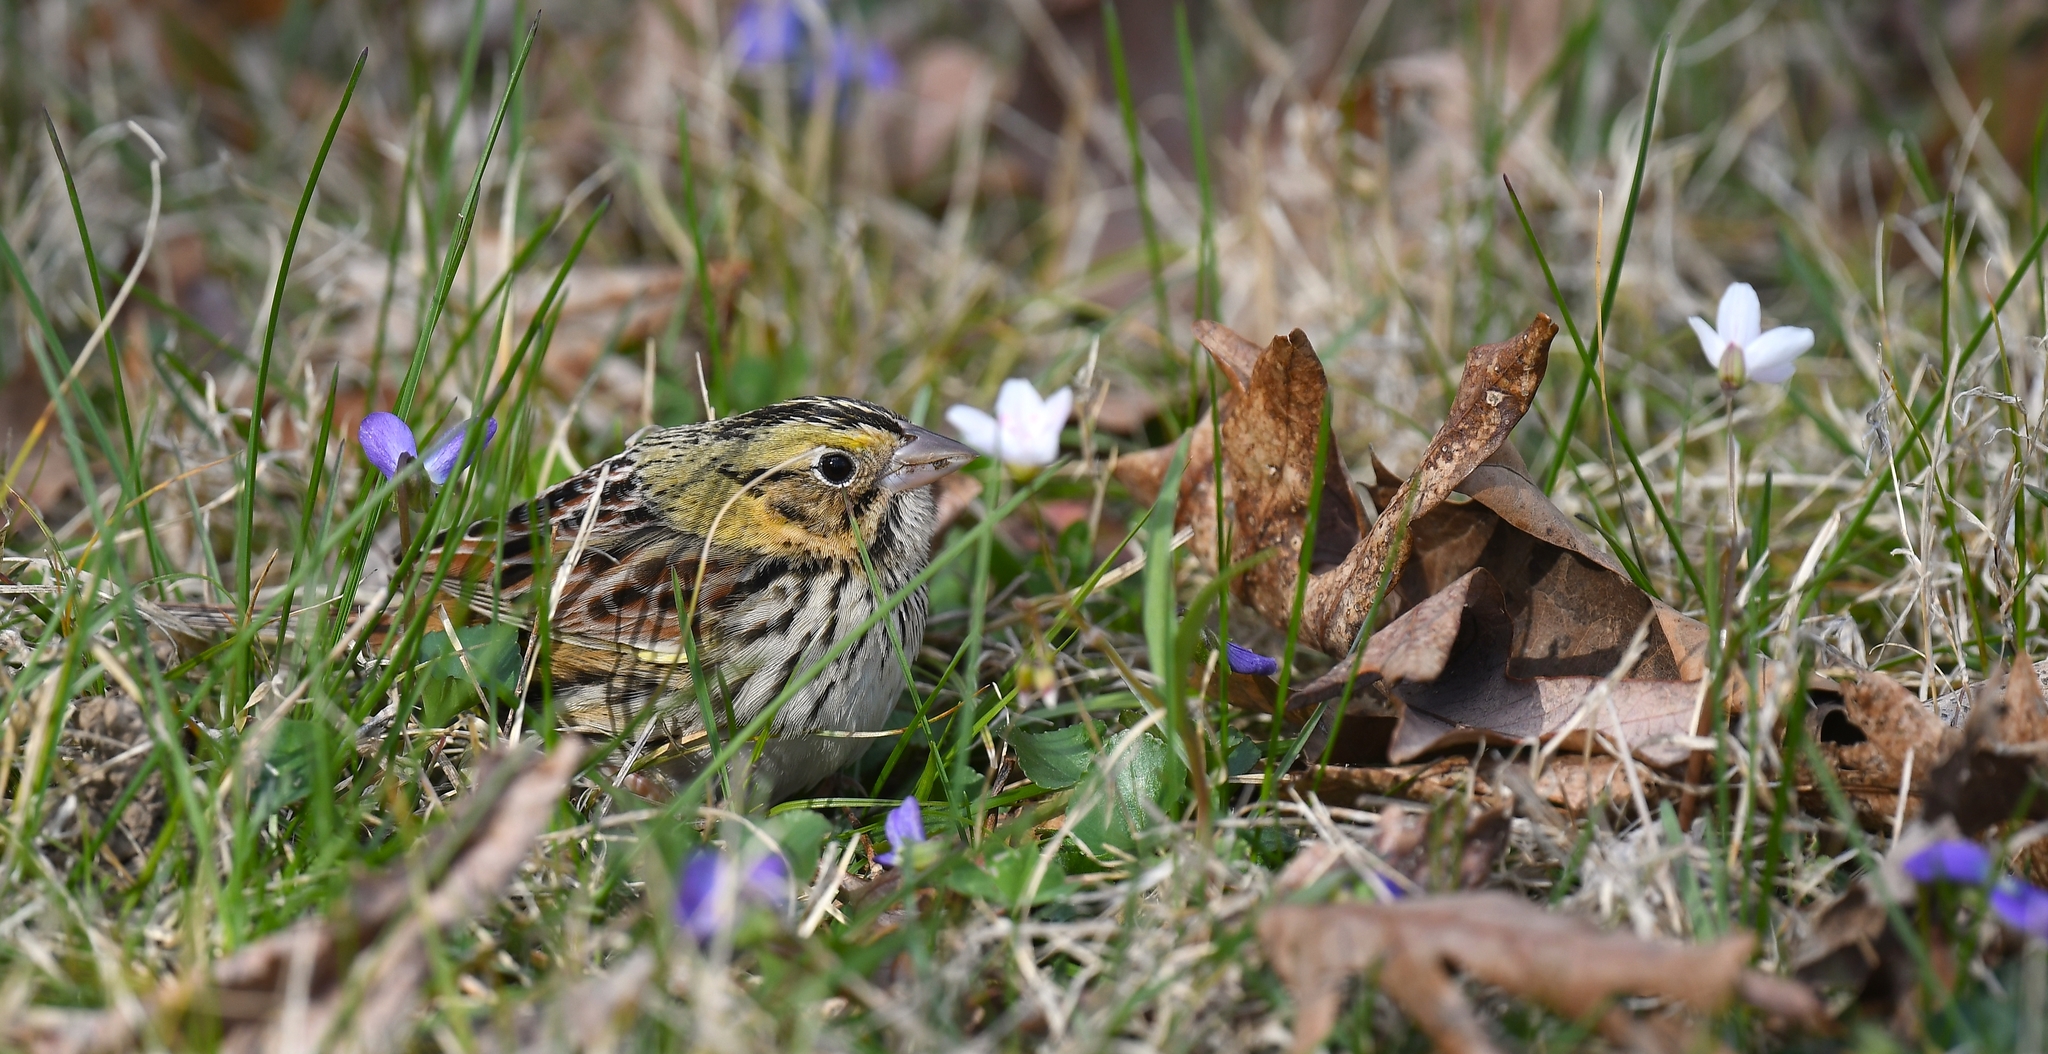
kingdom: Animalia
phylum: Chordata
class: Aves
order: Passeriformes
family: Passerellidae
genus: Centronyx
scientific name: Centronyx henslowii
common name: Henslow's sparrow
